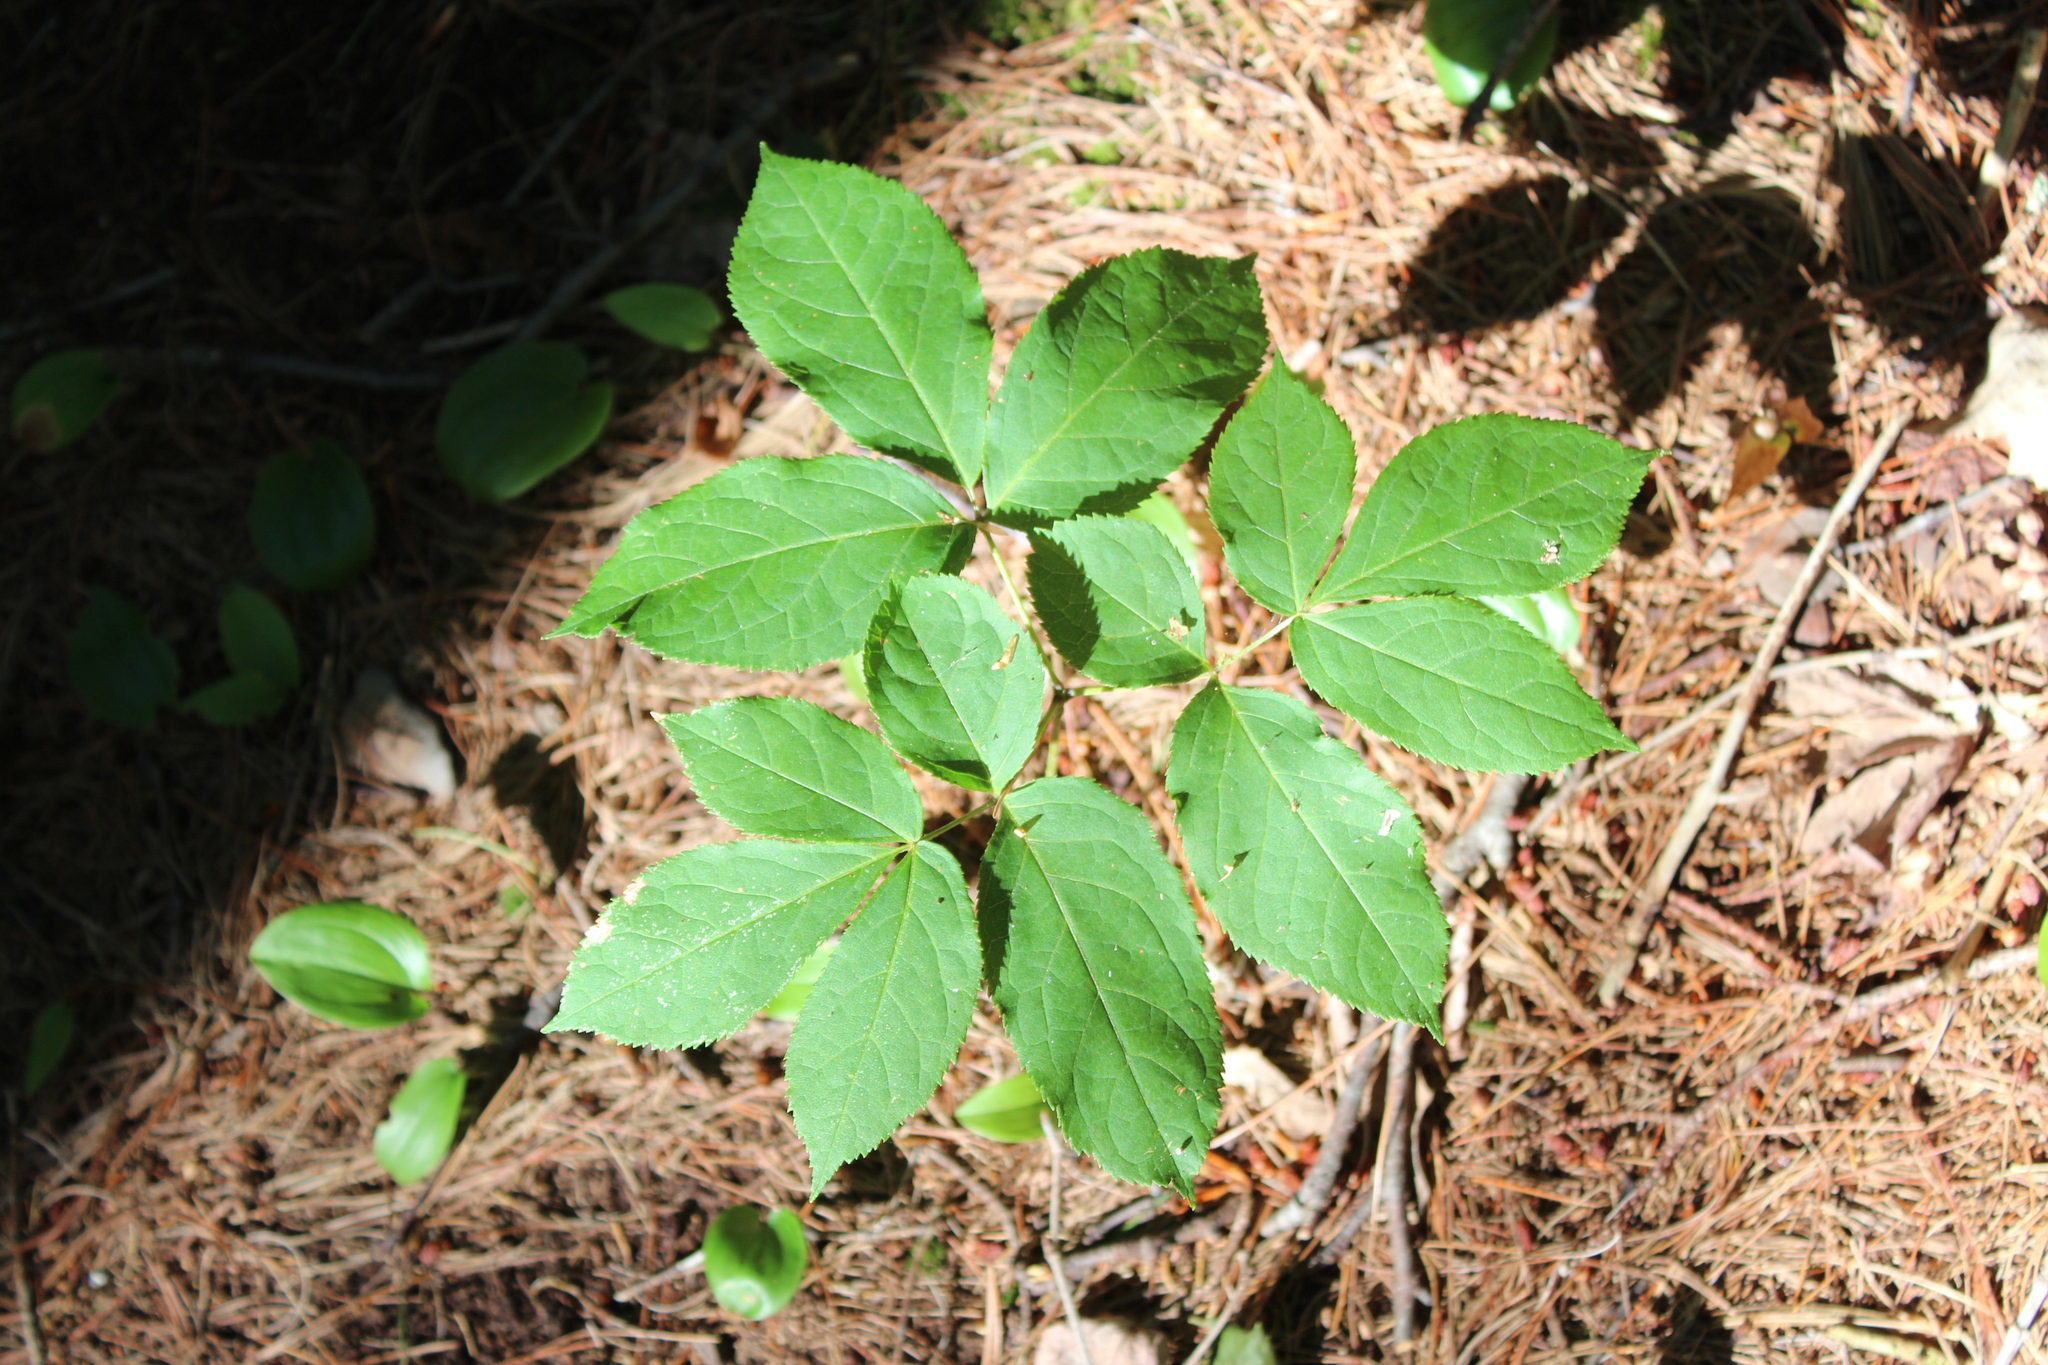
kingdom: Plantae
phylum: Tracheophyta
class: Magnoliopsida
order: Apiales
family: Araliaceae
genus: Aralia
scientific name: Aralia nudicaulis
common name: Wild sarsaparilla
